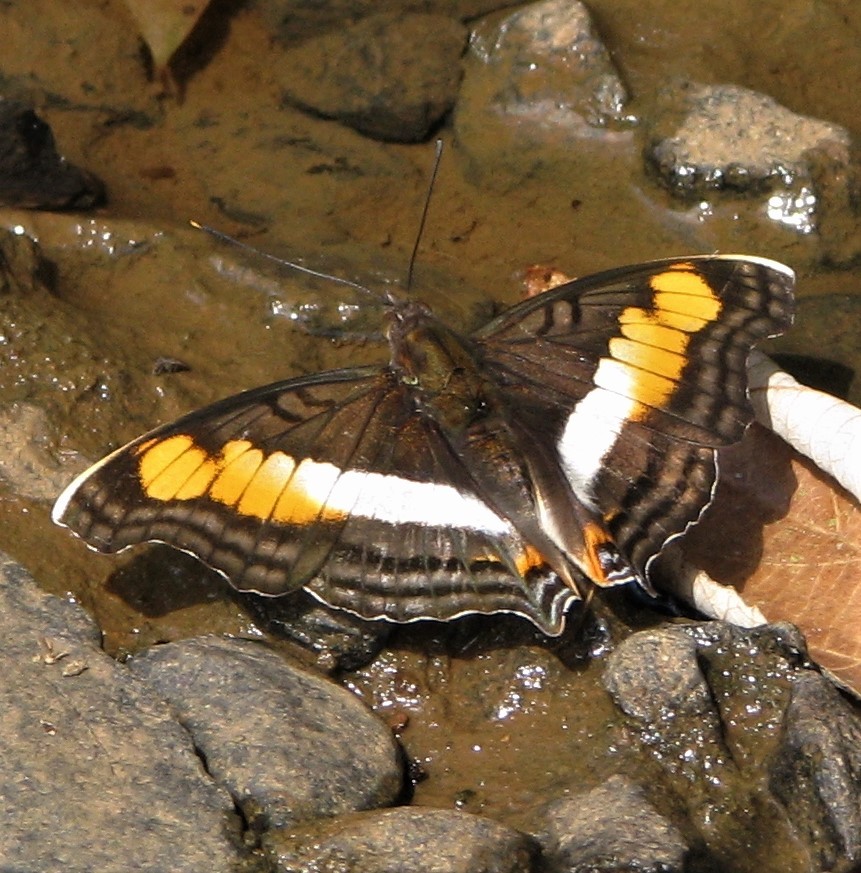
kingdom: Animalia
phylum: Arthropoda
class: Insecta
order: Lepidoptera
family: Nymphalidae
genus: Doxocopa
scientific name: Doxocopa linda
